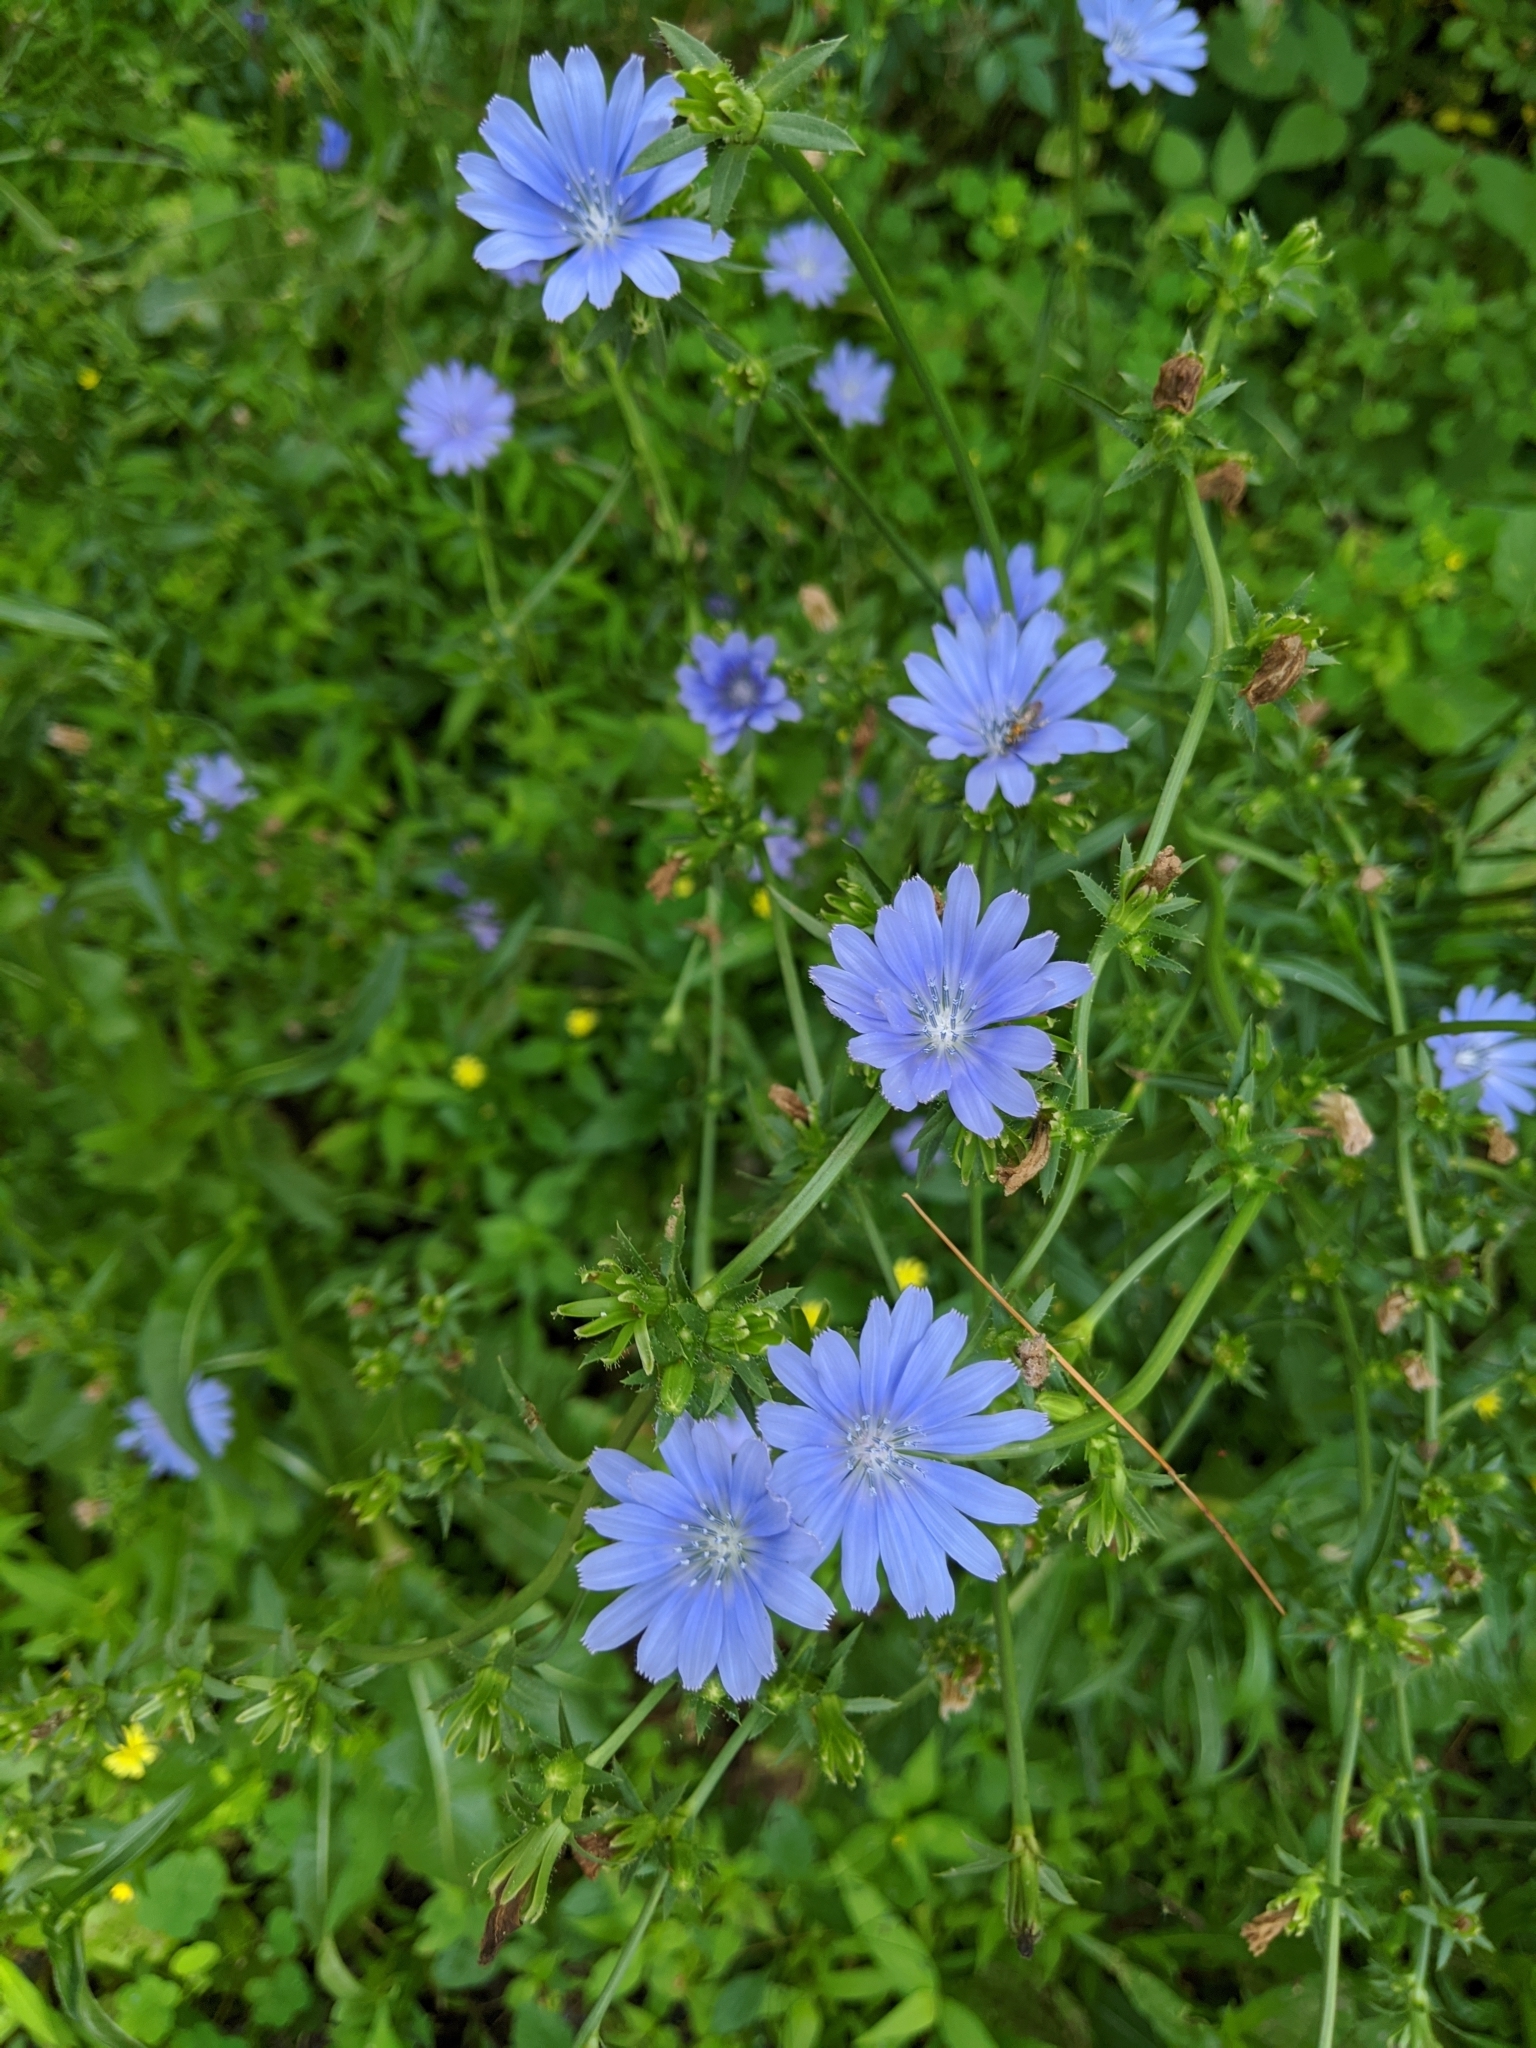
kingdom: Plantae
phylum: Tracheophyta
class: Magnoliopsida
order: Asterales
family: Asteraceae
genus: Cichorium
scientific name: Cichorium intybus
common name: Chicory
